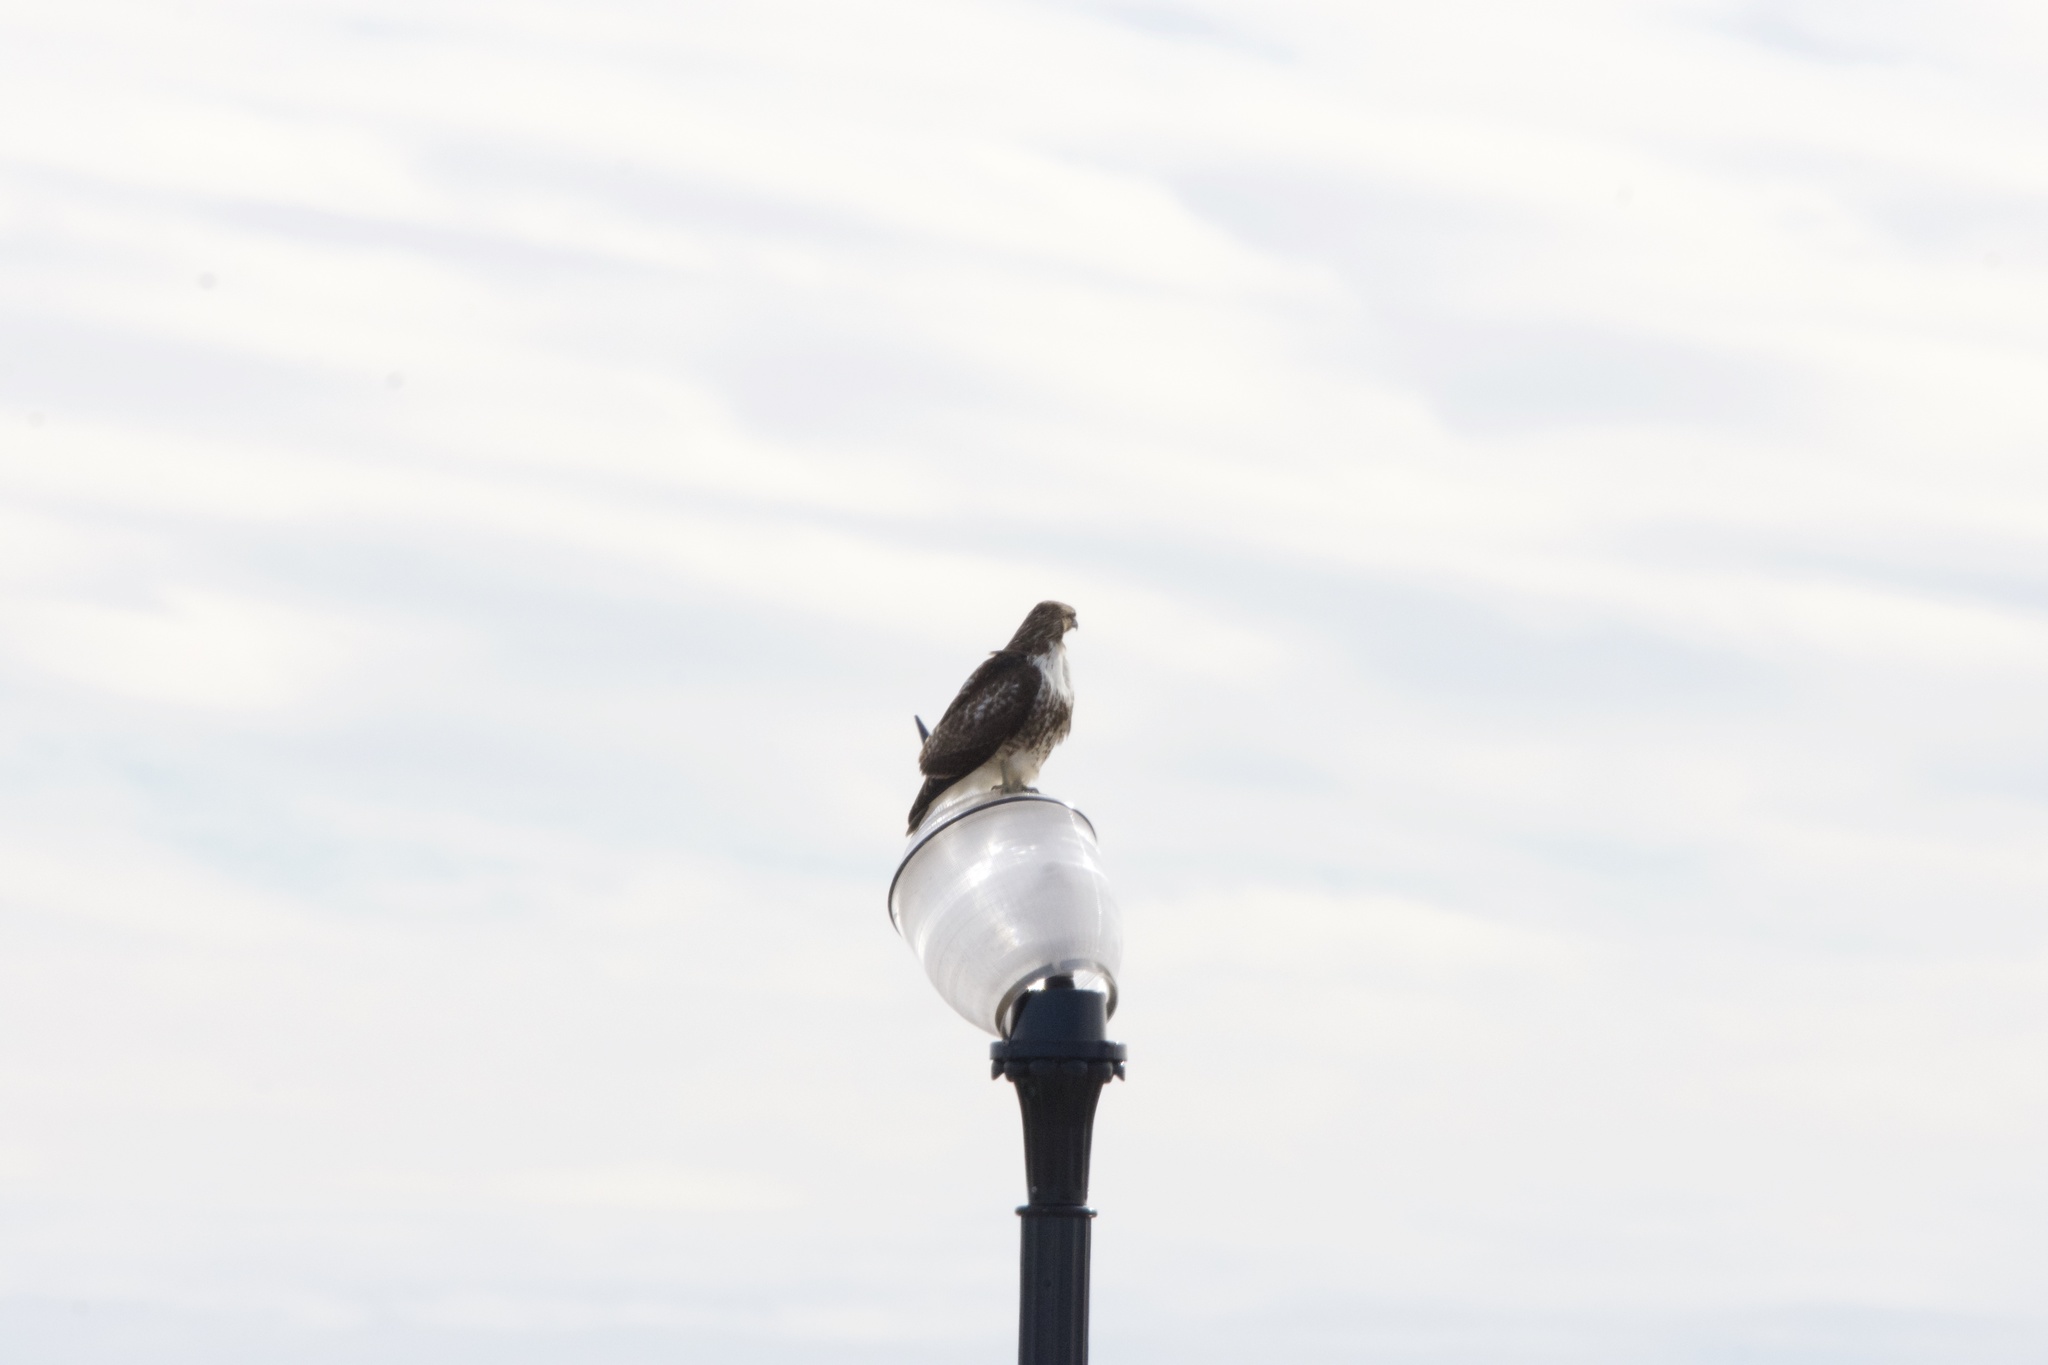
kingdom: Animalia
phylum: Chordata
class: Aves
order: Accipitriformes
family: Accipitridae
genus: Buteo
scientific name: Buteo jamaicensis
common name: Red-tailed hawk
